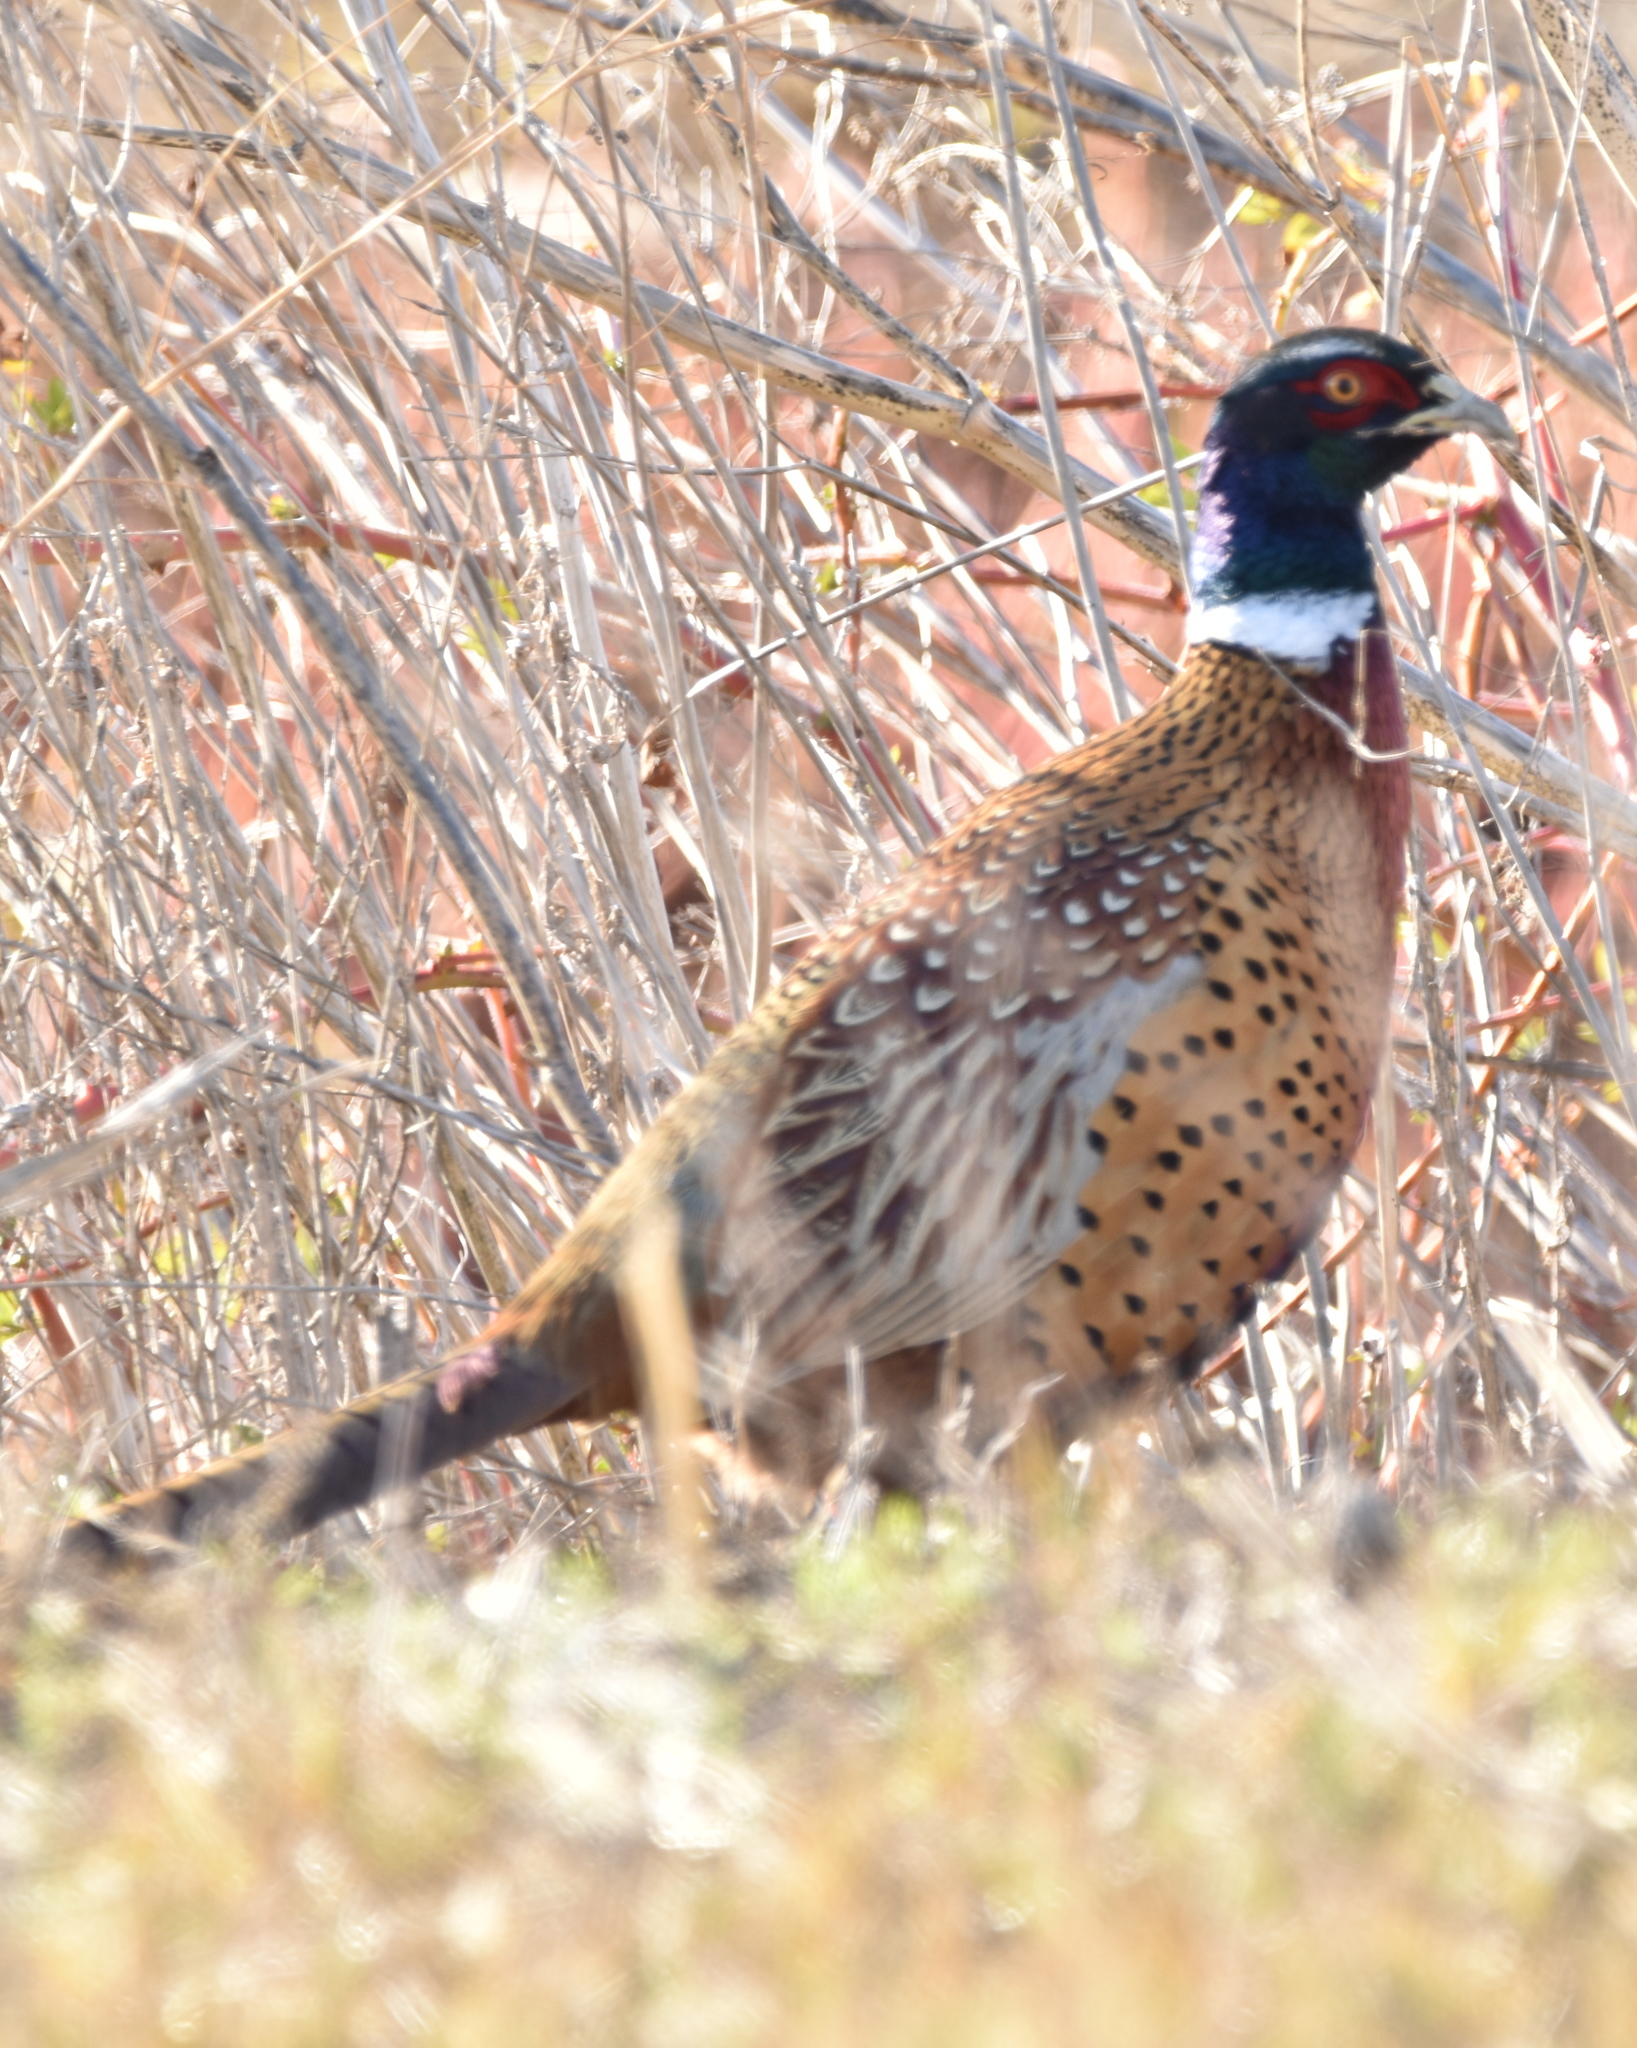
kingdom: Animalia
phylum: Chordata
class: Aves
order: Galliformes
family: Phasianidae
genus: Phasianus
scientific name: Phasianus colchicus
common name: Common pheasant
